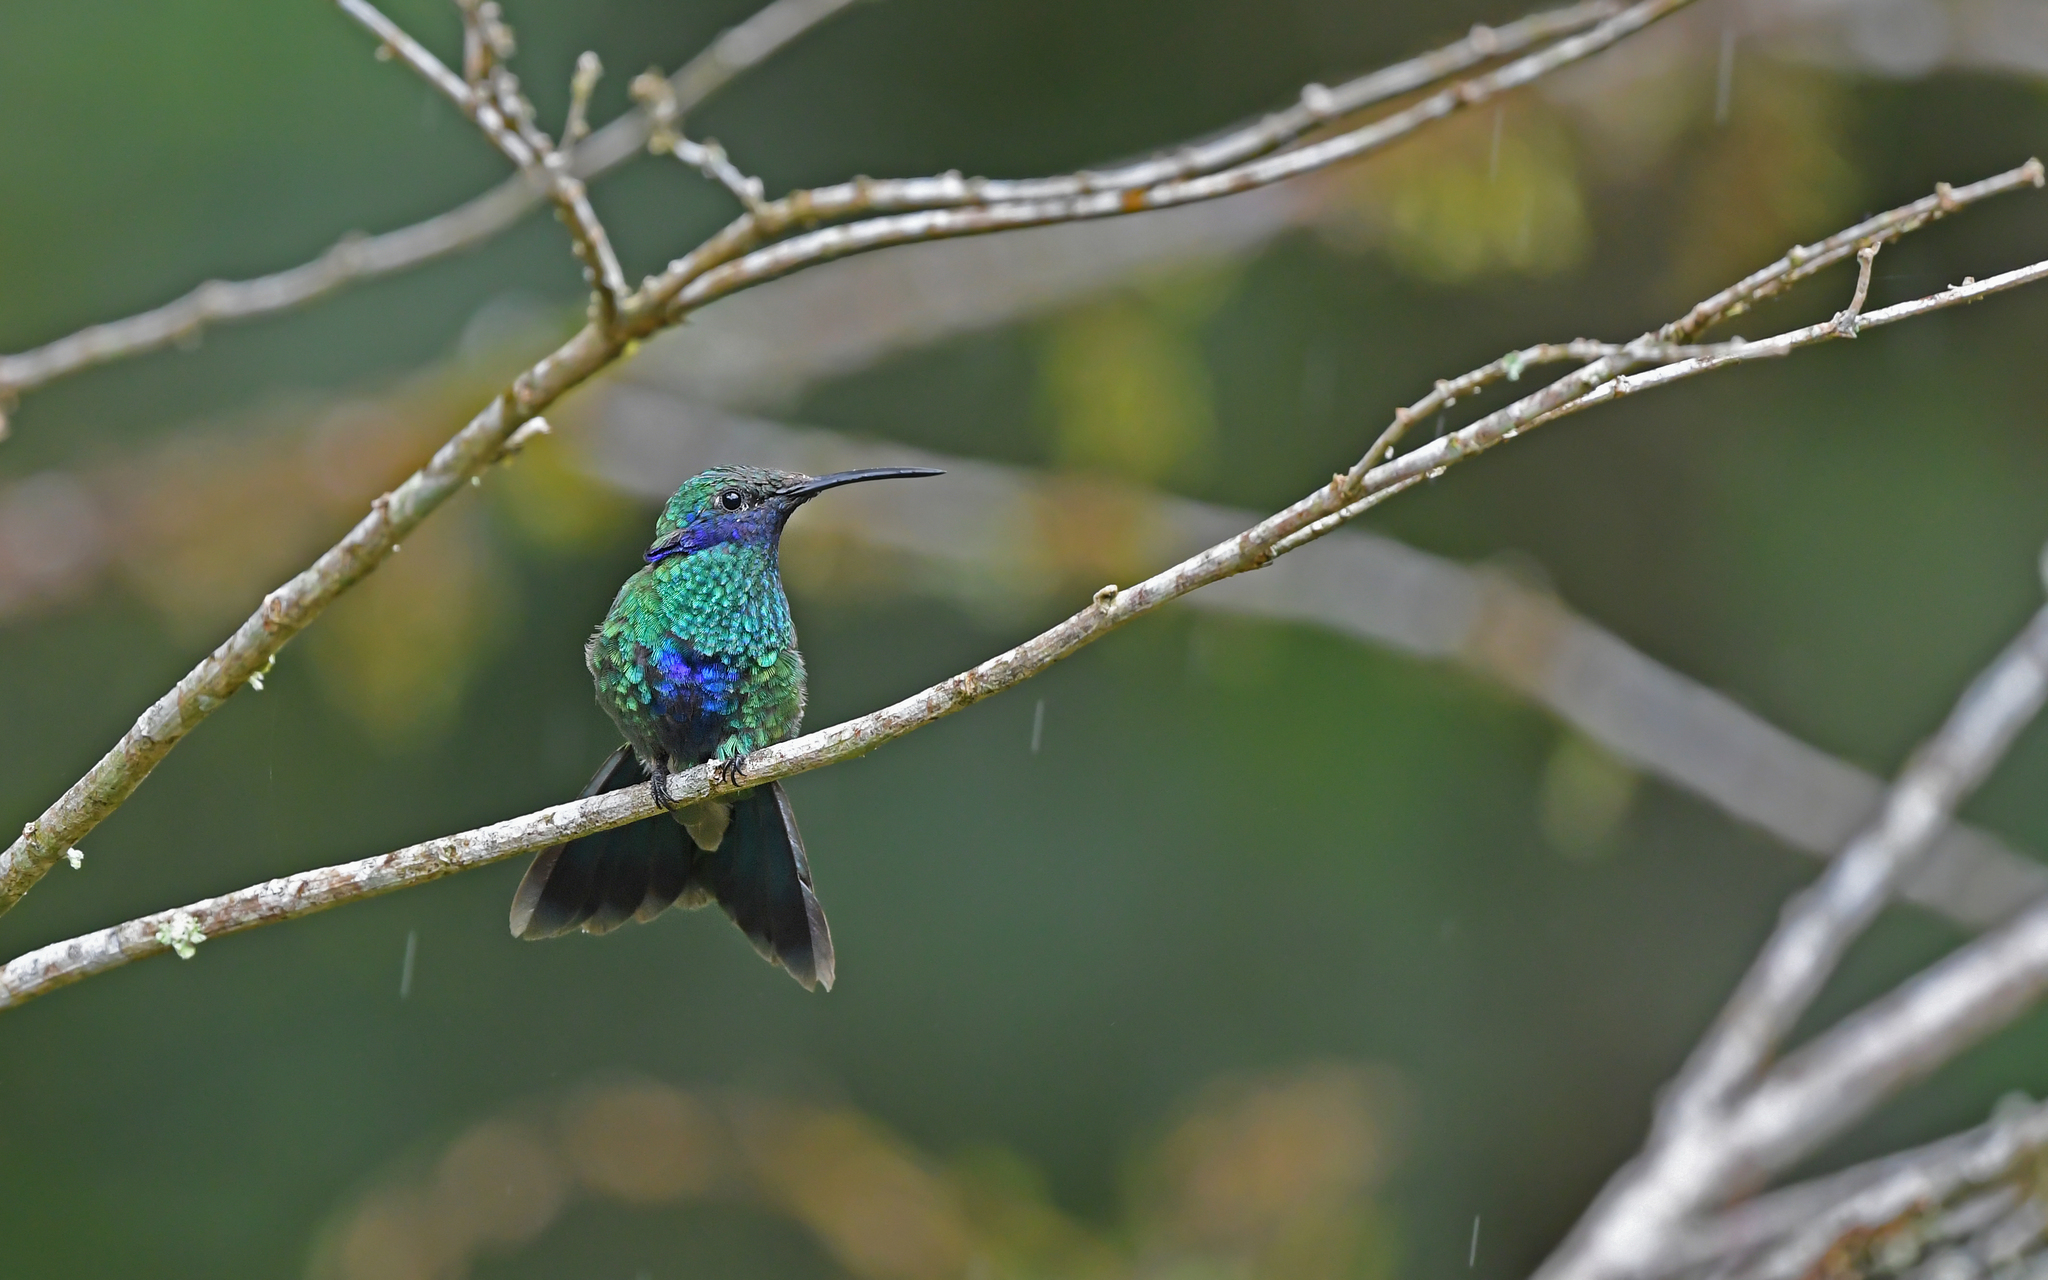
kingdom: Animalia
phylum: Chordata
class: Aves
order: Apodiformes
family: Trochilidae
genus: Colibri
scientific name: Colibri coruscans
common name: Sparkling violetear
